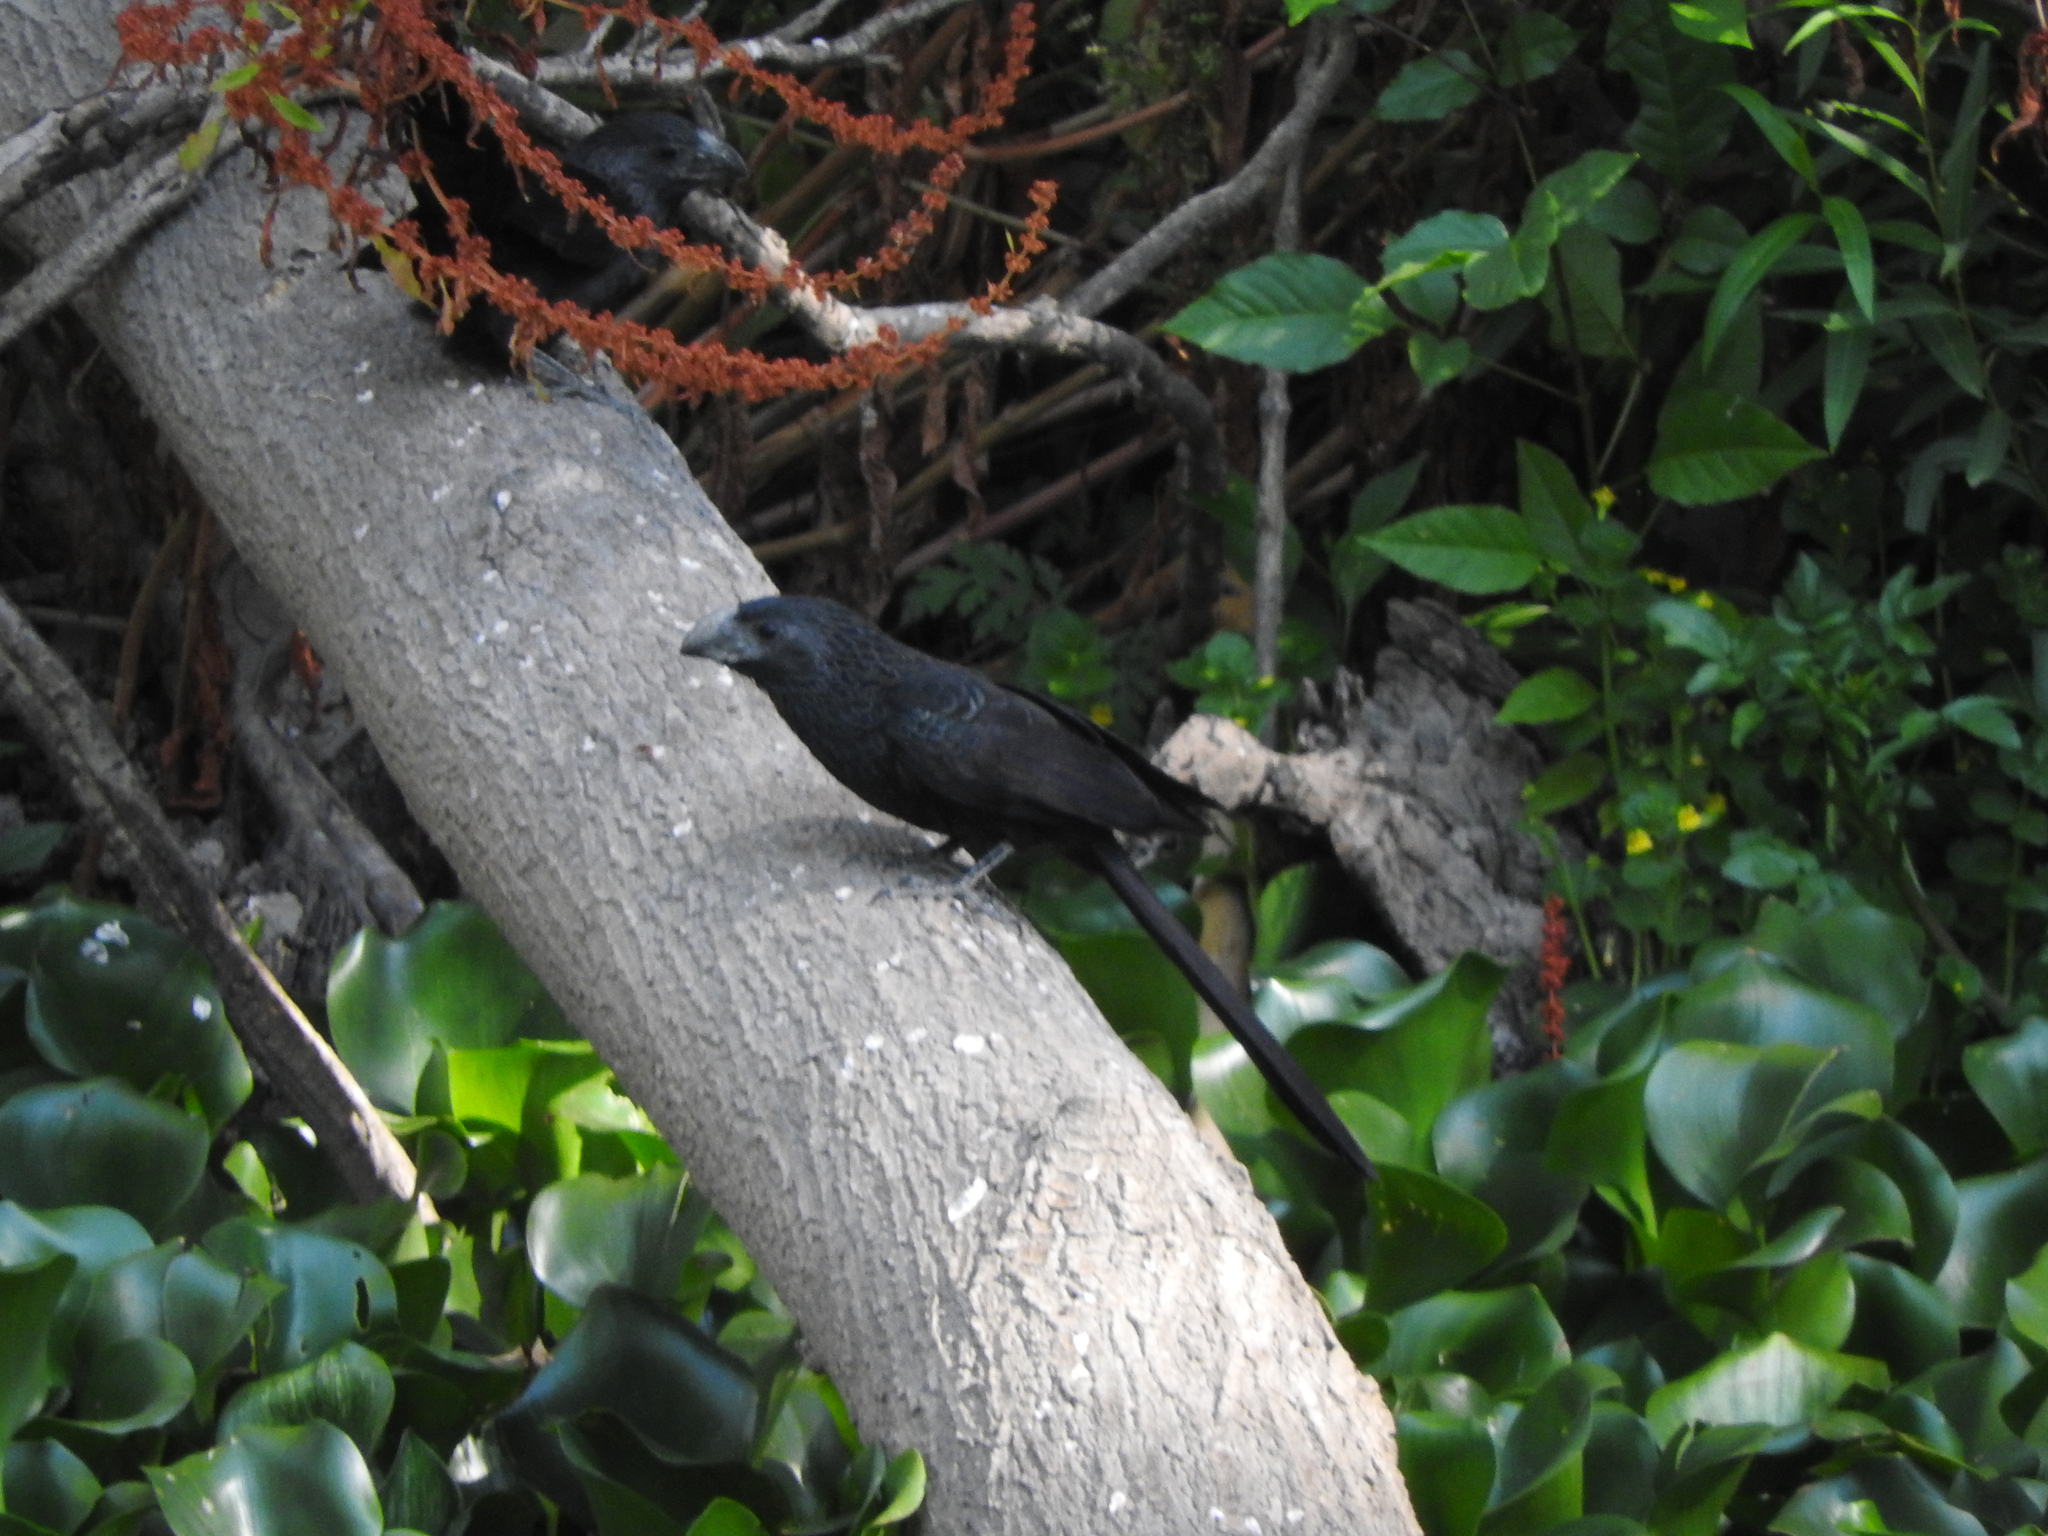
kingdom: Animalia
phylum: Chordata
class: Aves
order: Cuculiformes
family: Cuculidae
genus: Crotophaga
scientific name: Crotophaga sulcirostris
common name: Groove-billed ani
